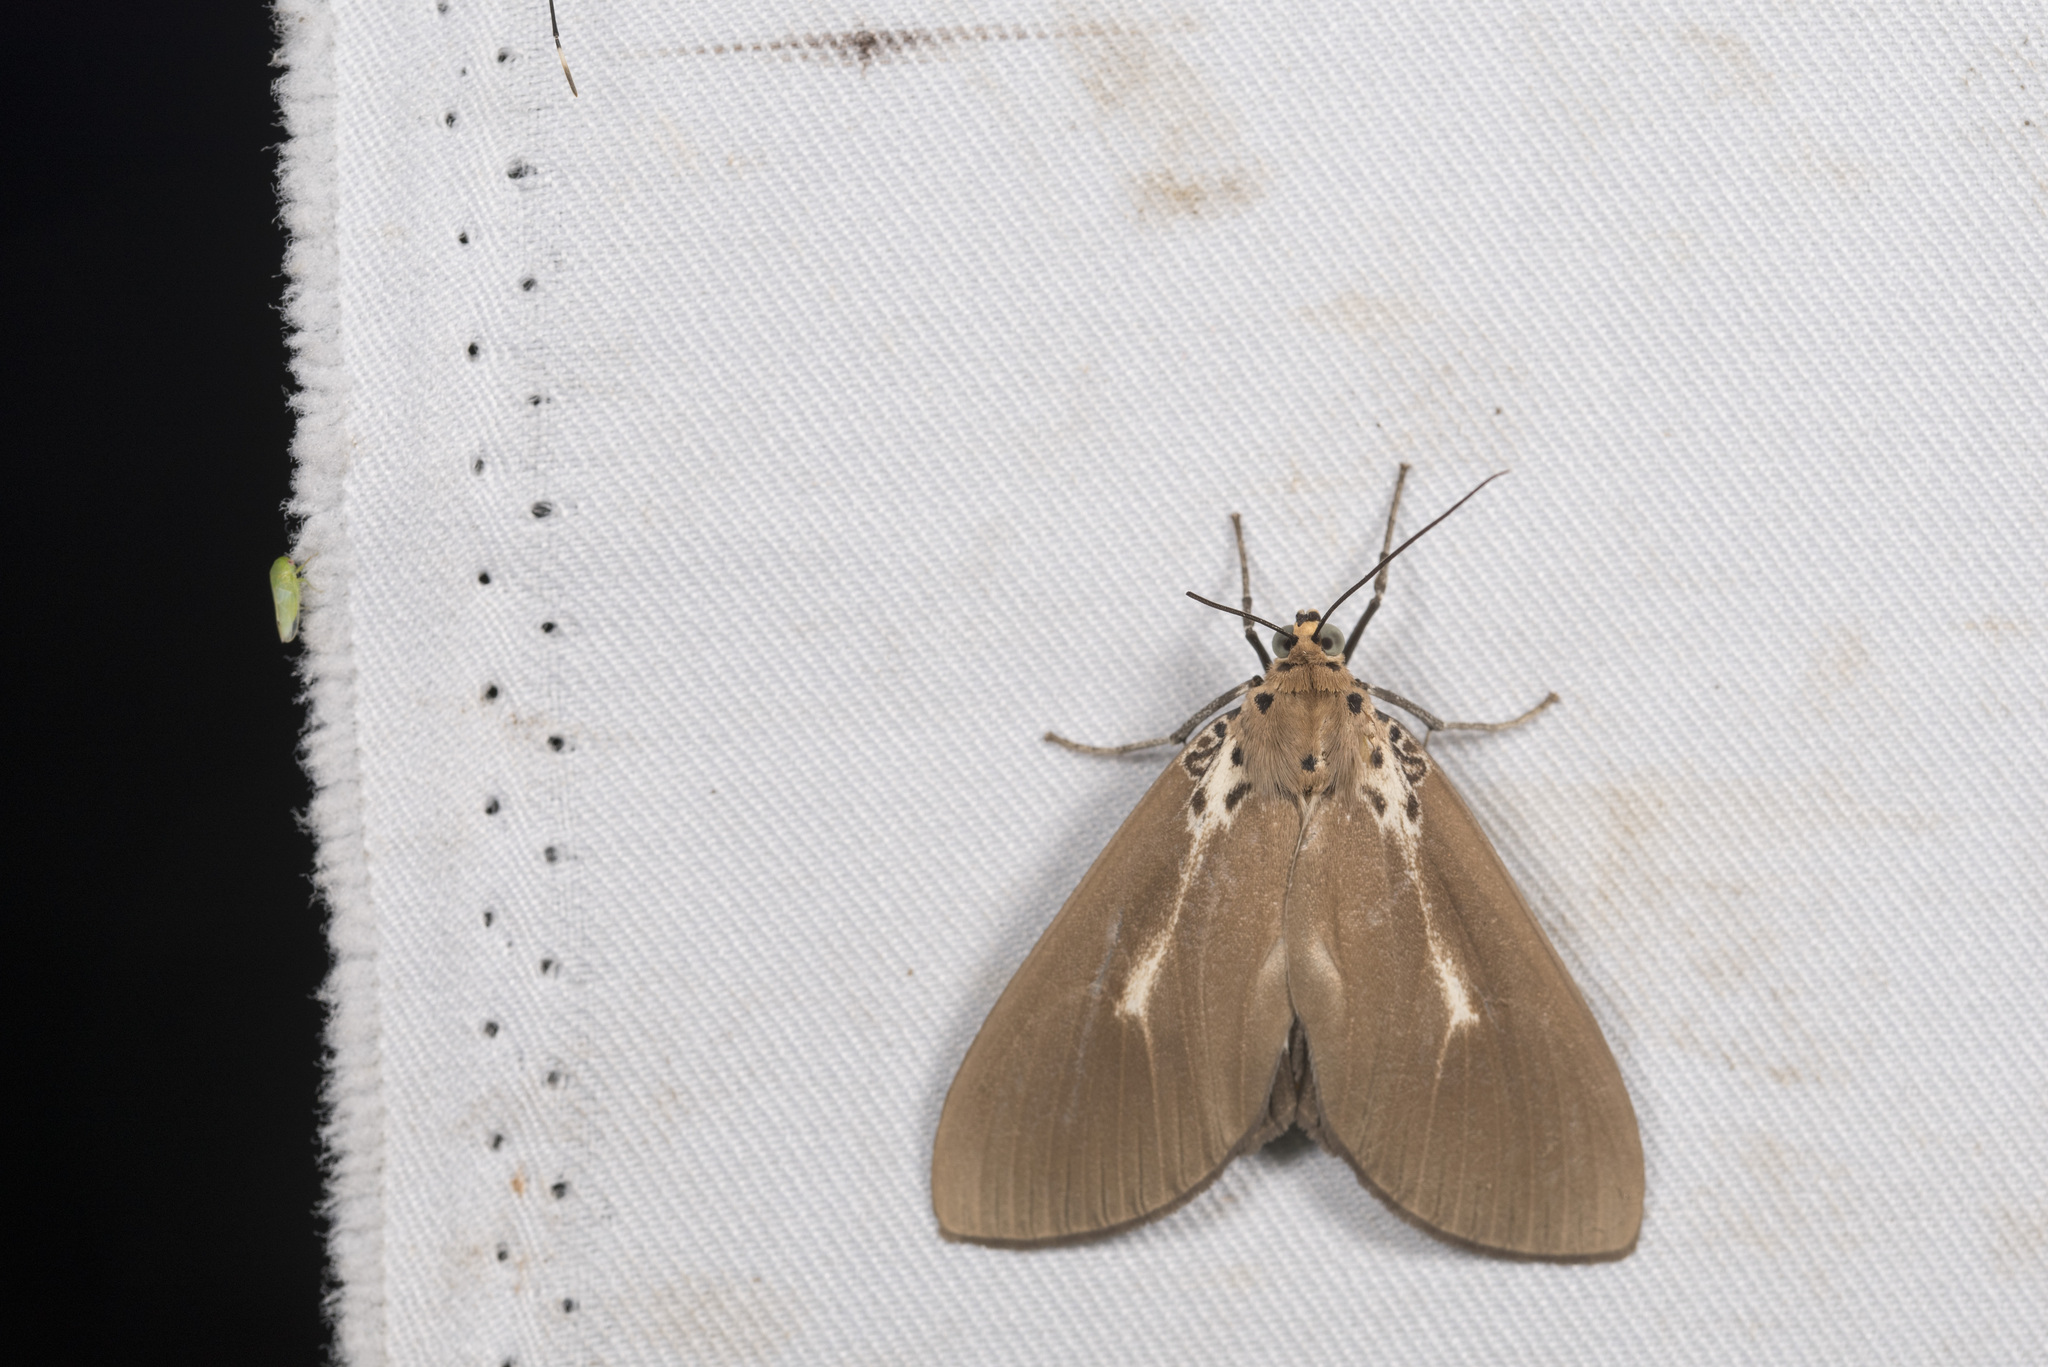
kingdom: Animalia
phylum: Arthropoda
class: Insecta
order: Lepidoptera
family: Erebidae
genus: Asota
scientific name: Asota heliconia
